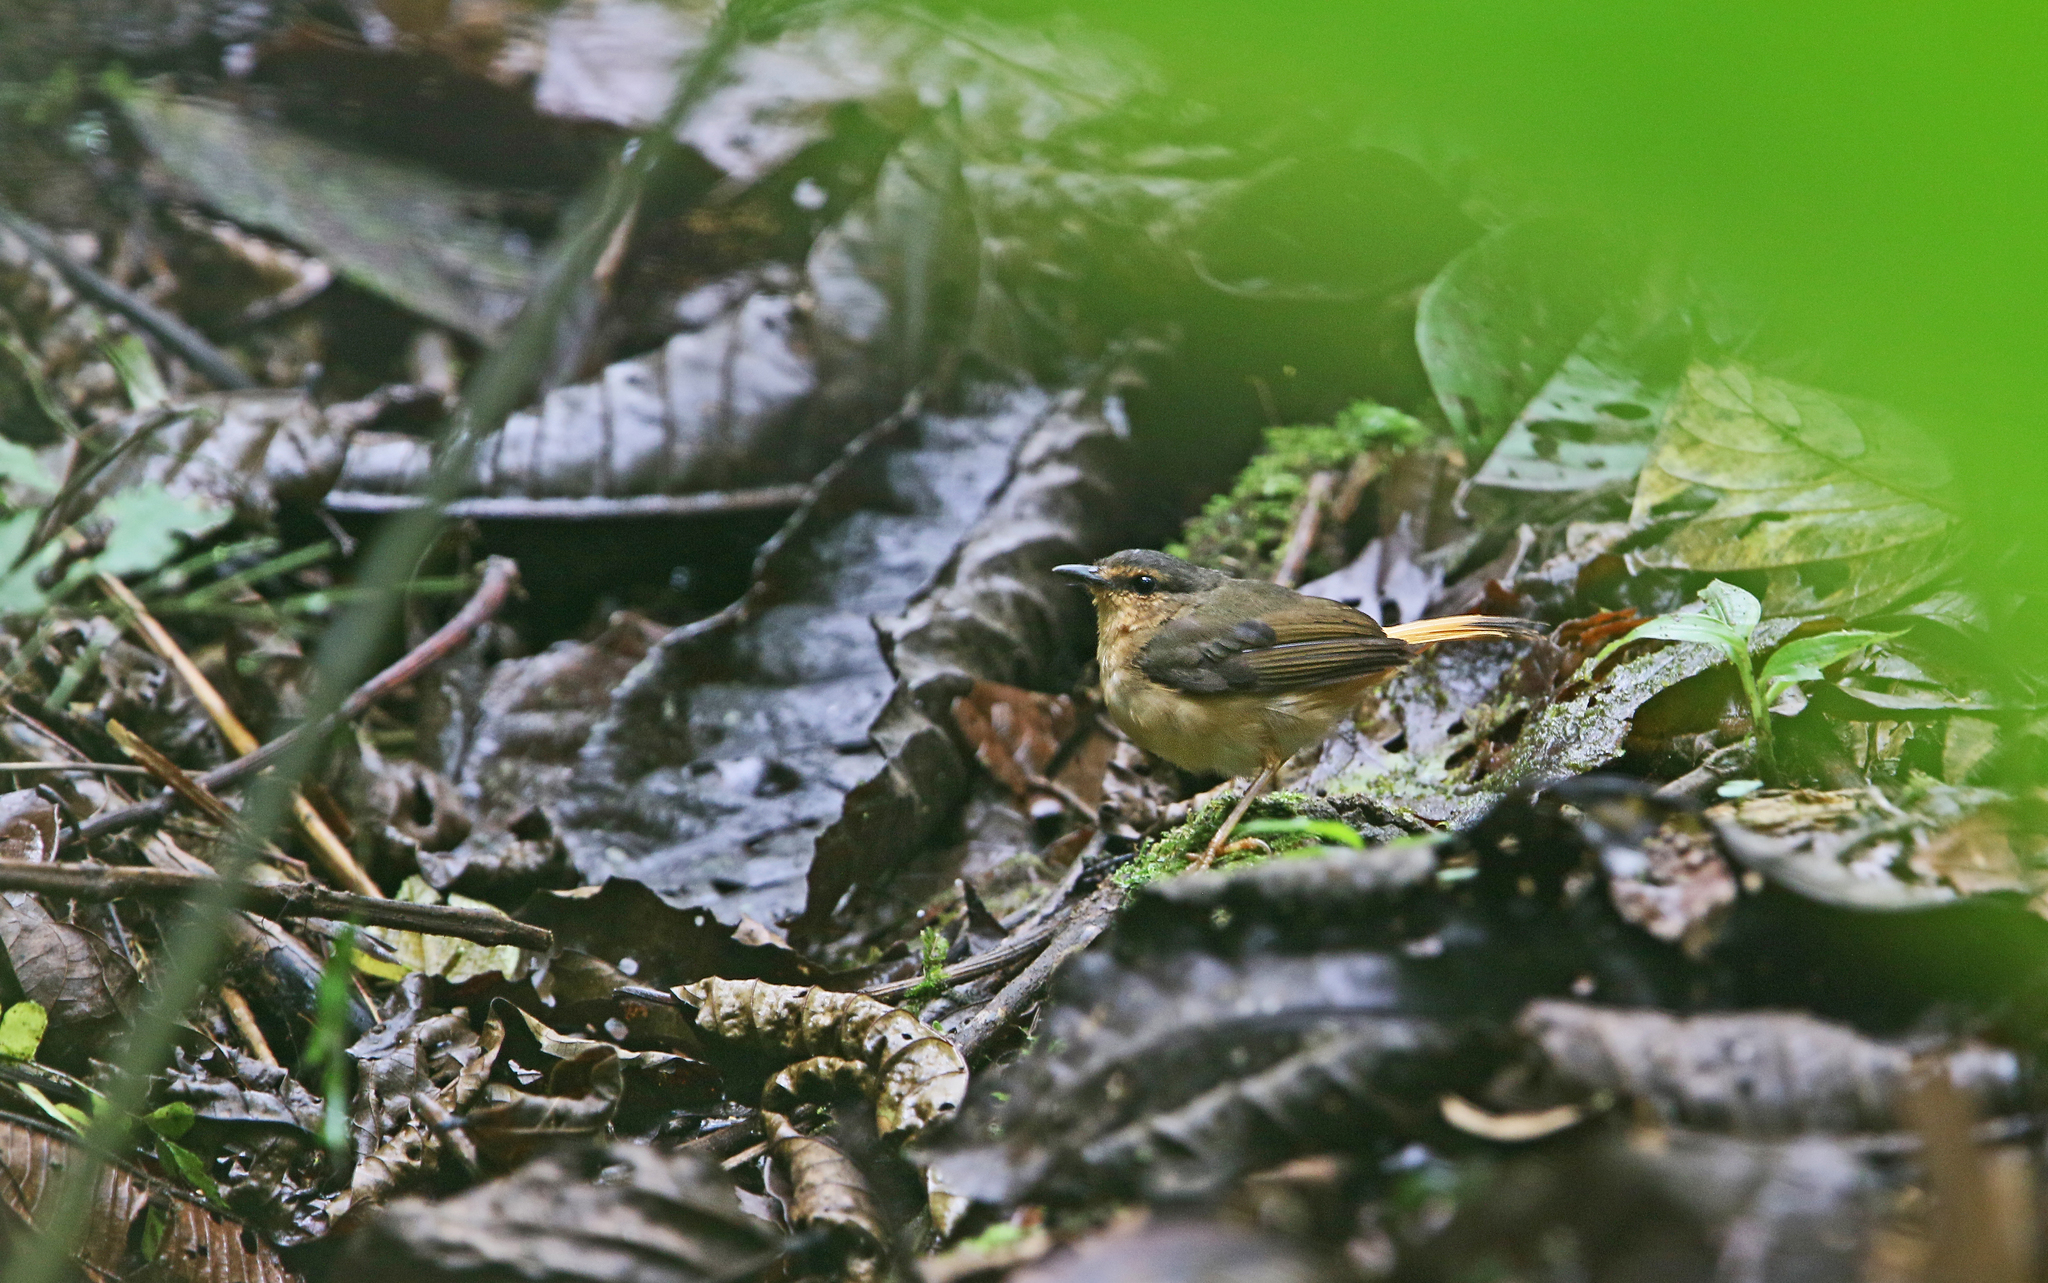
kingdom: Animalia
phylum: Chordata
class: Aves
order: Passeriformes
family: Parulidae
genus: Myiothlypis
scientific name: Myiothlypis fulvicauda
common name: Buff-rumped warbler
